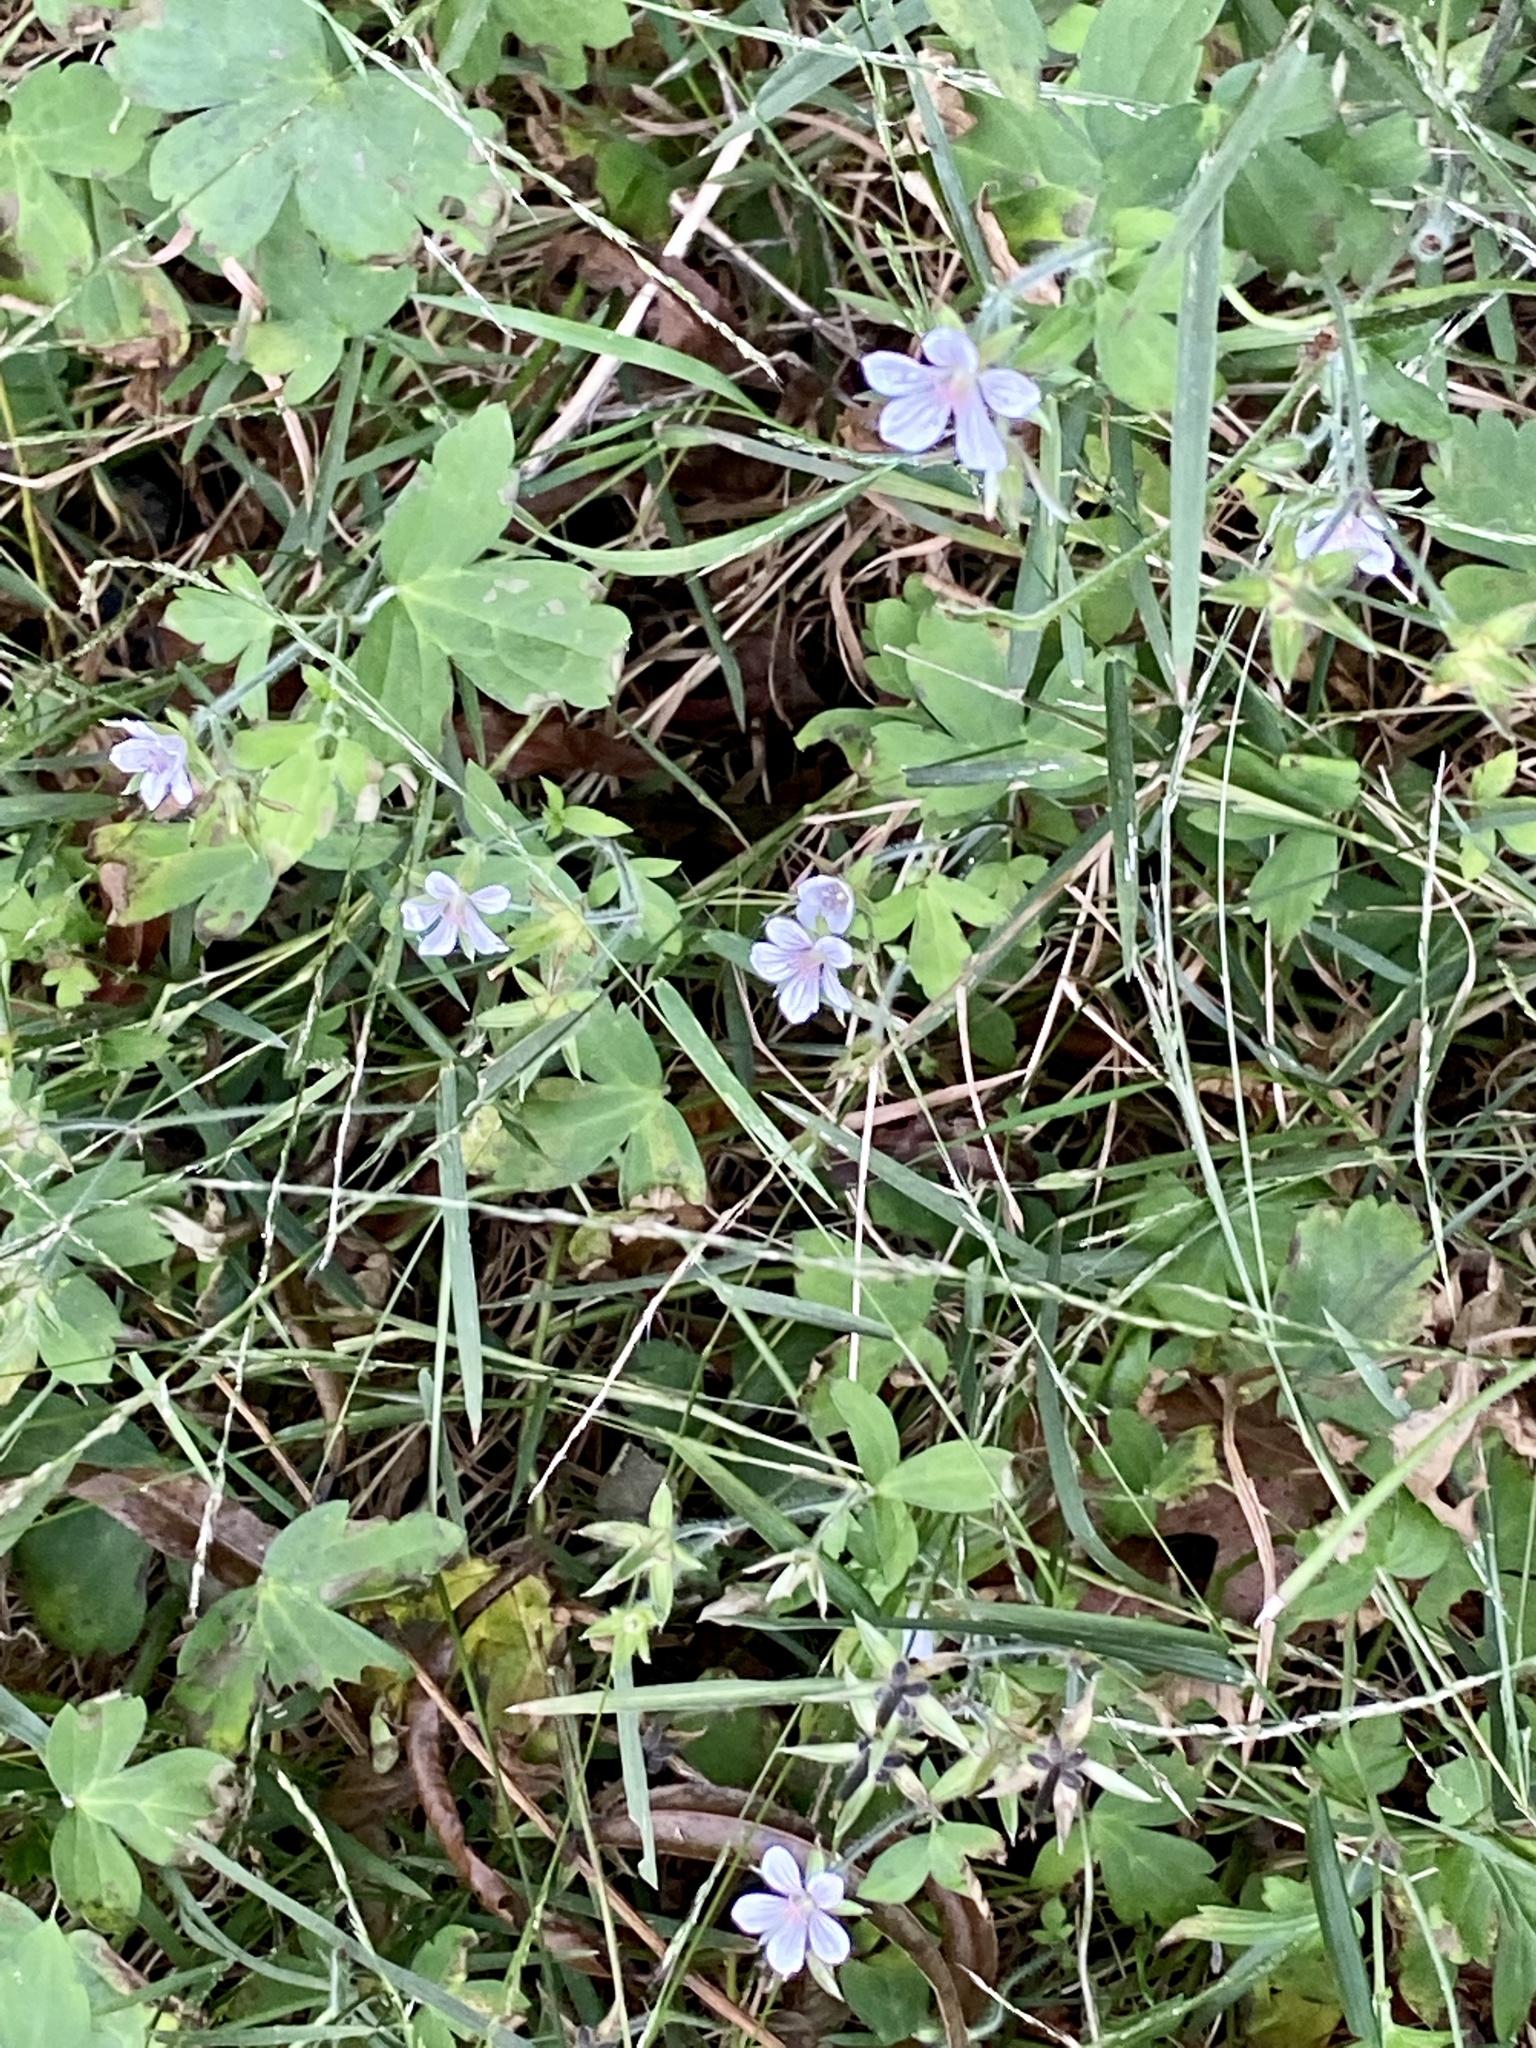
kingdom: Plantae
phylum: Tracheophyta
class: Magnoliopsida
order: Geraniales
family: Geraniaceae
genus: Geranium
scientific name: Geranium thunbergii
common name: Dewdrop crane's-bill
